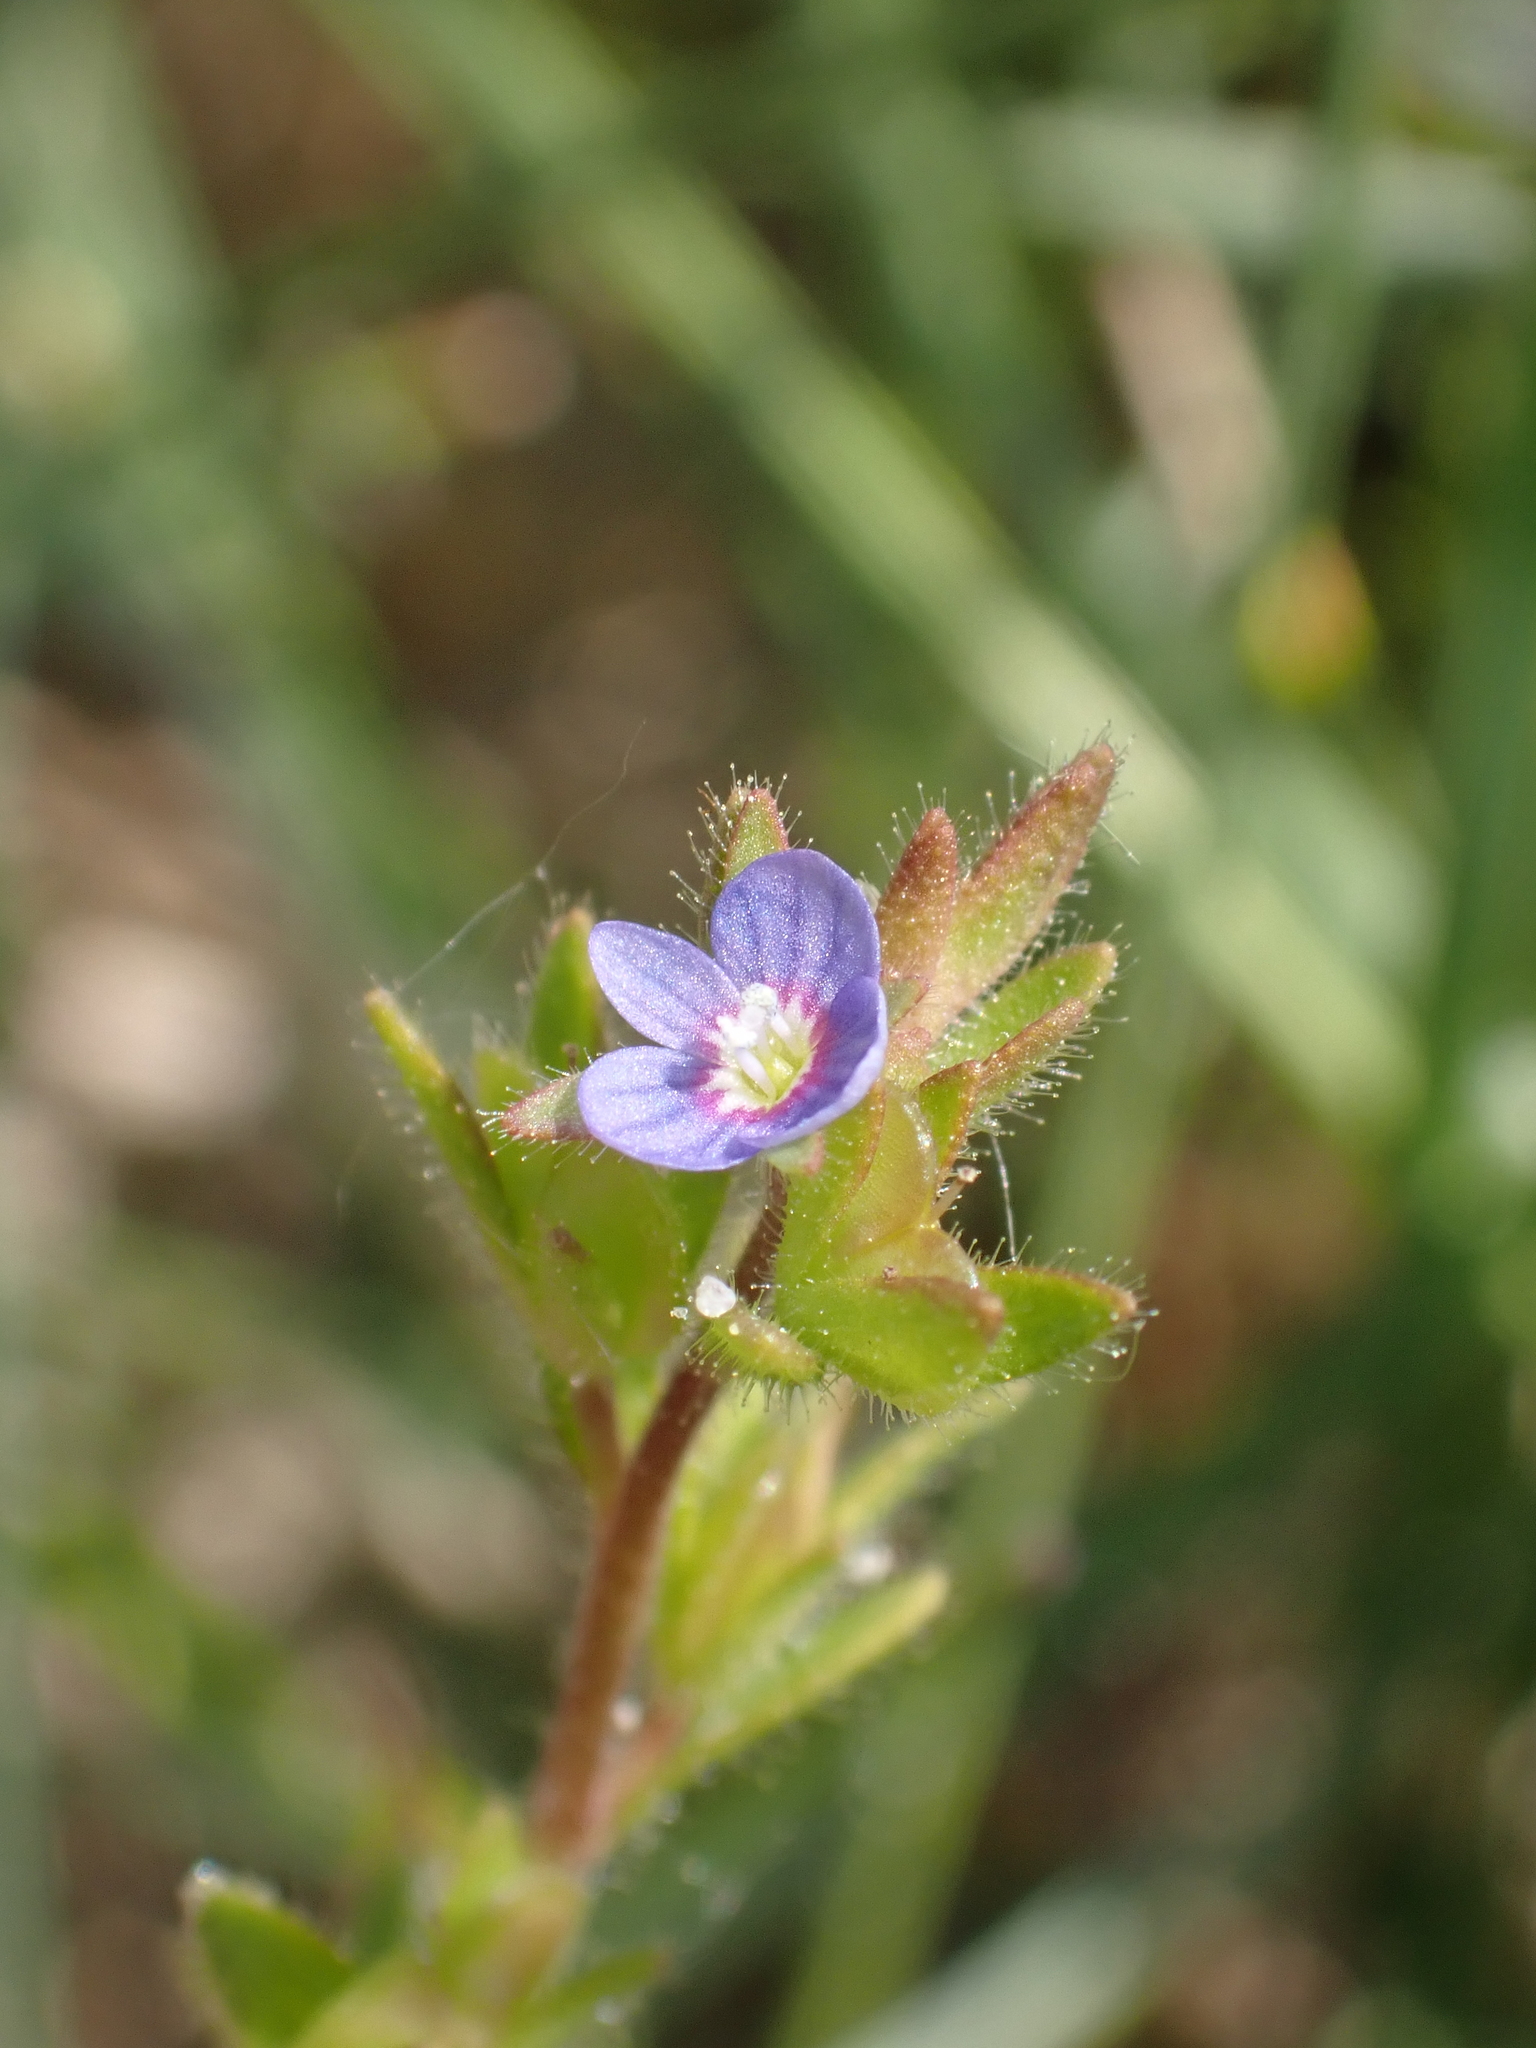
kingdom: Plantae
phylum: Tracheophyta
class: Magnoliopsida
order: Lamiales
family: Plantaginaceae
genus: Veronica
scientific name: Veronica arvensis
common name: Corn speedwell
